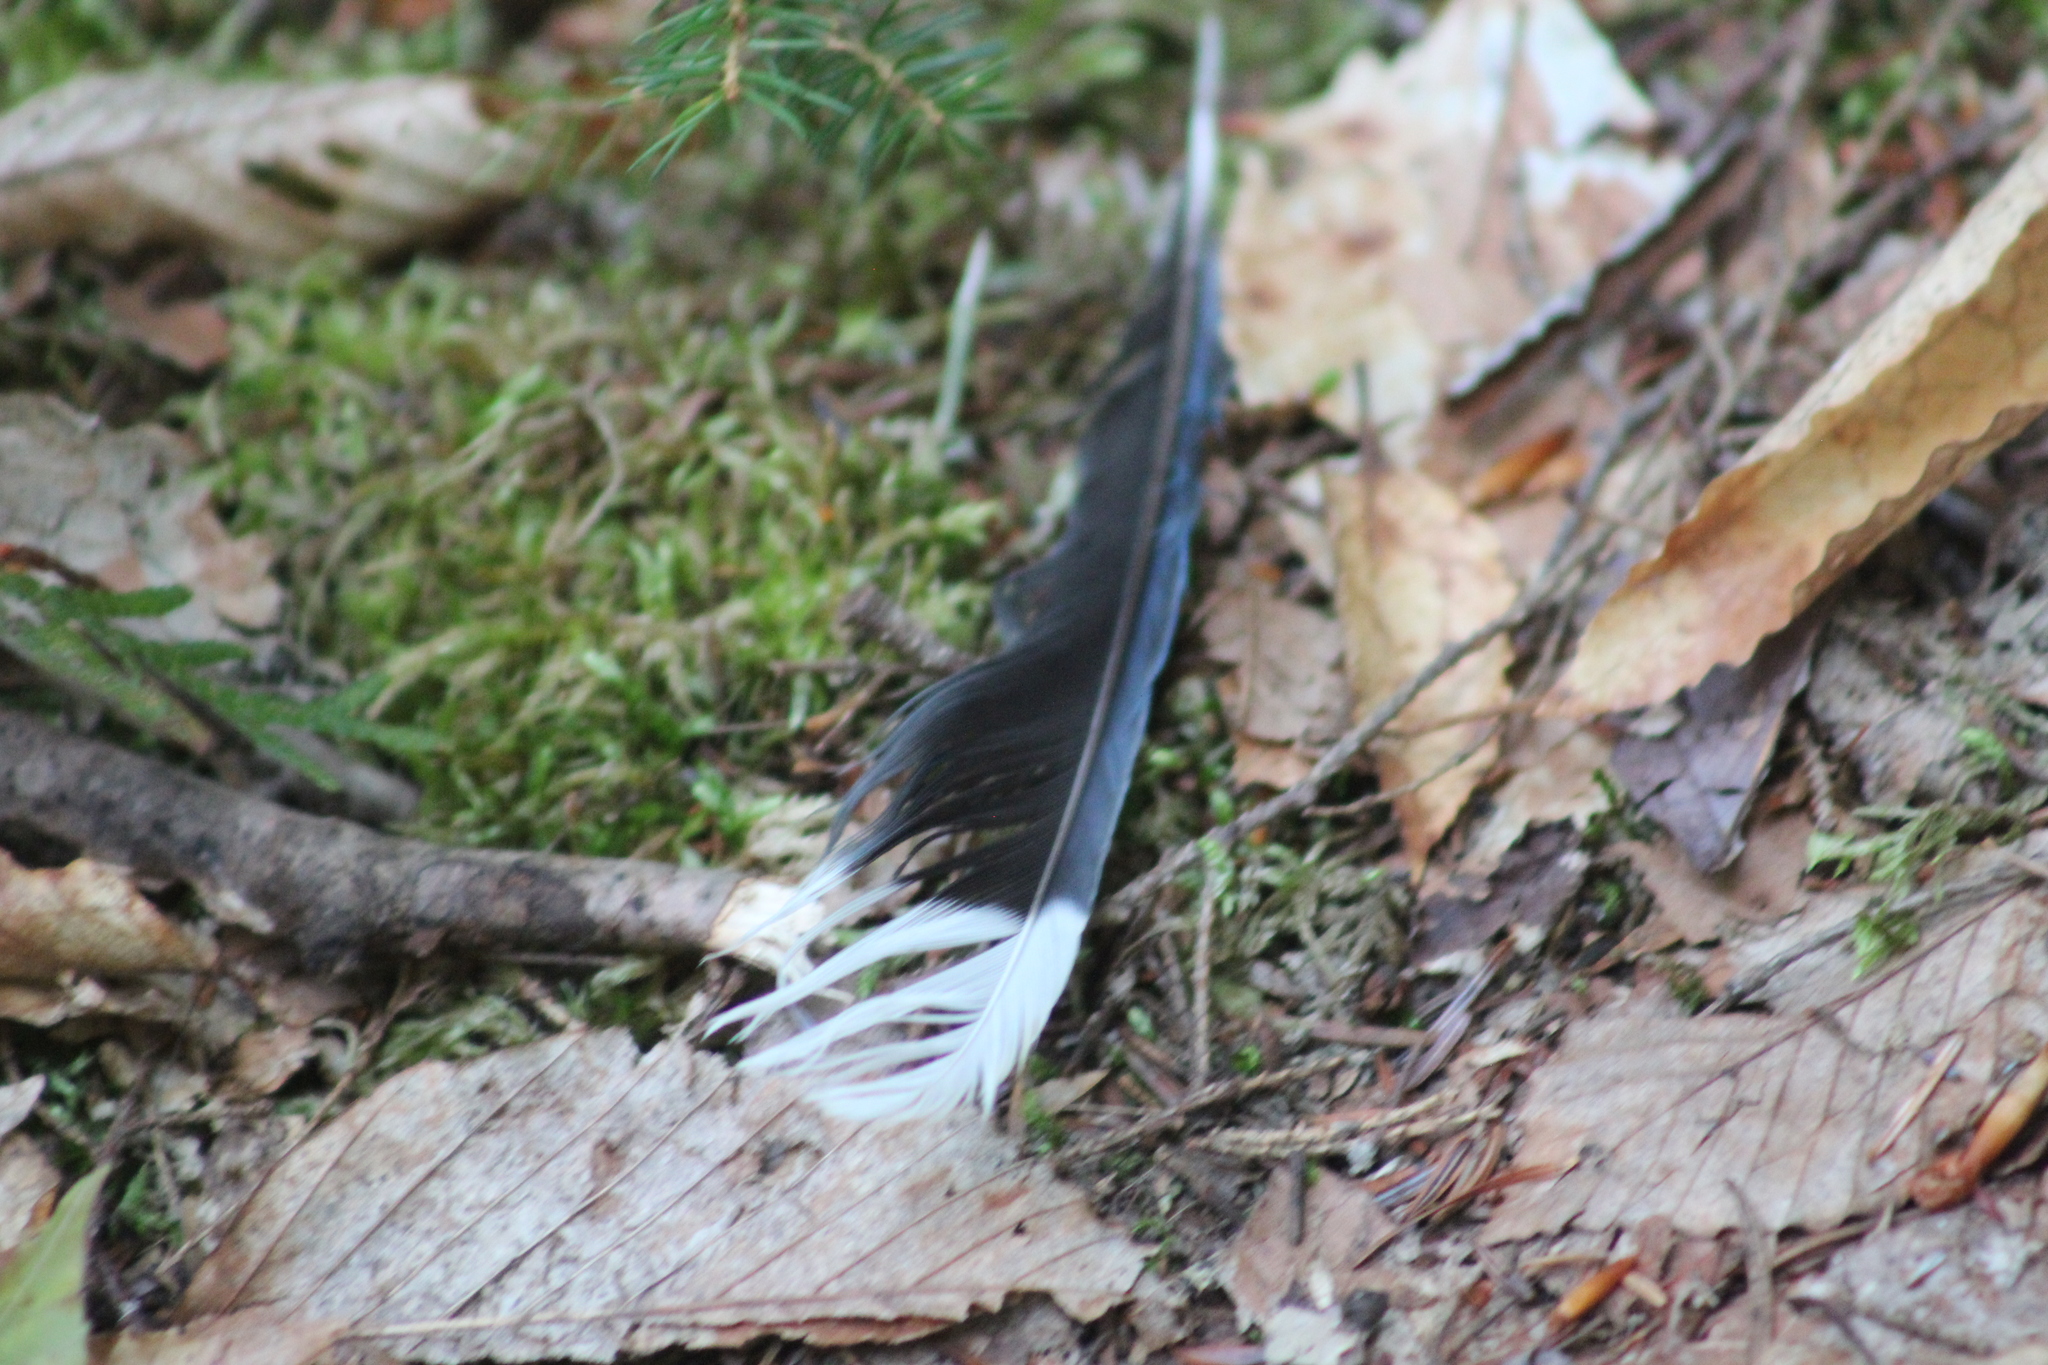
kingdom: Animalia
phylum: Chordata
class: Aves
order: Passeriformes
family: Corvidae
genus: Cyanocitta
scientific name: Cyanocitta cristata
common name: Blue jay
